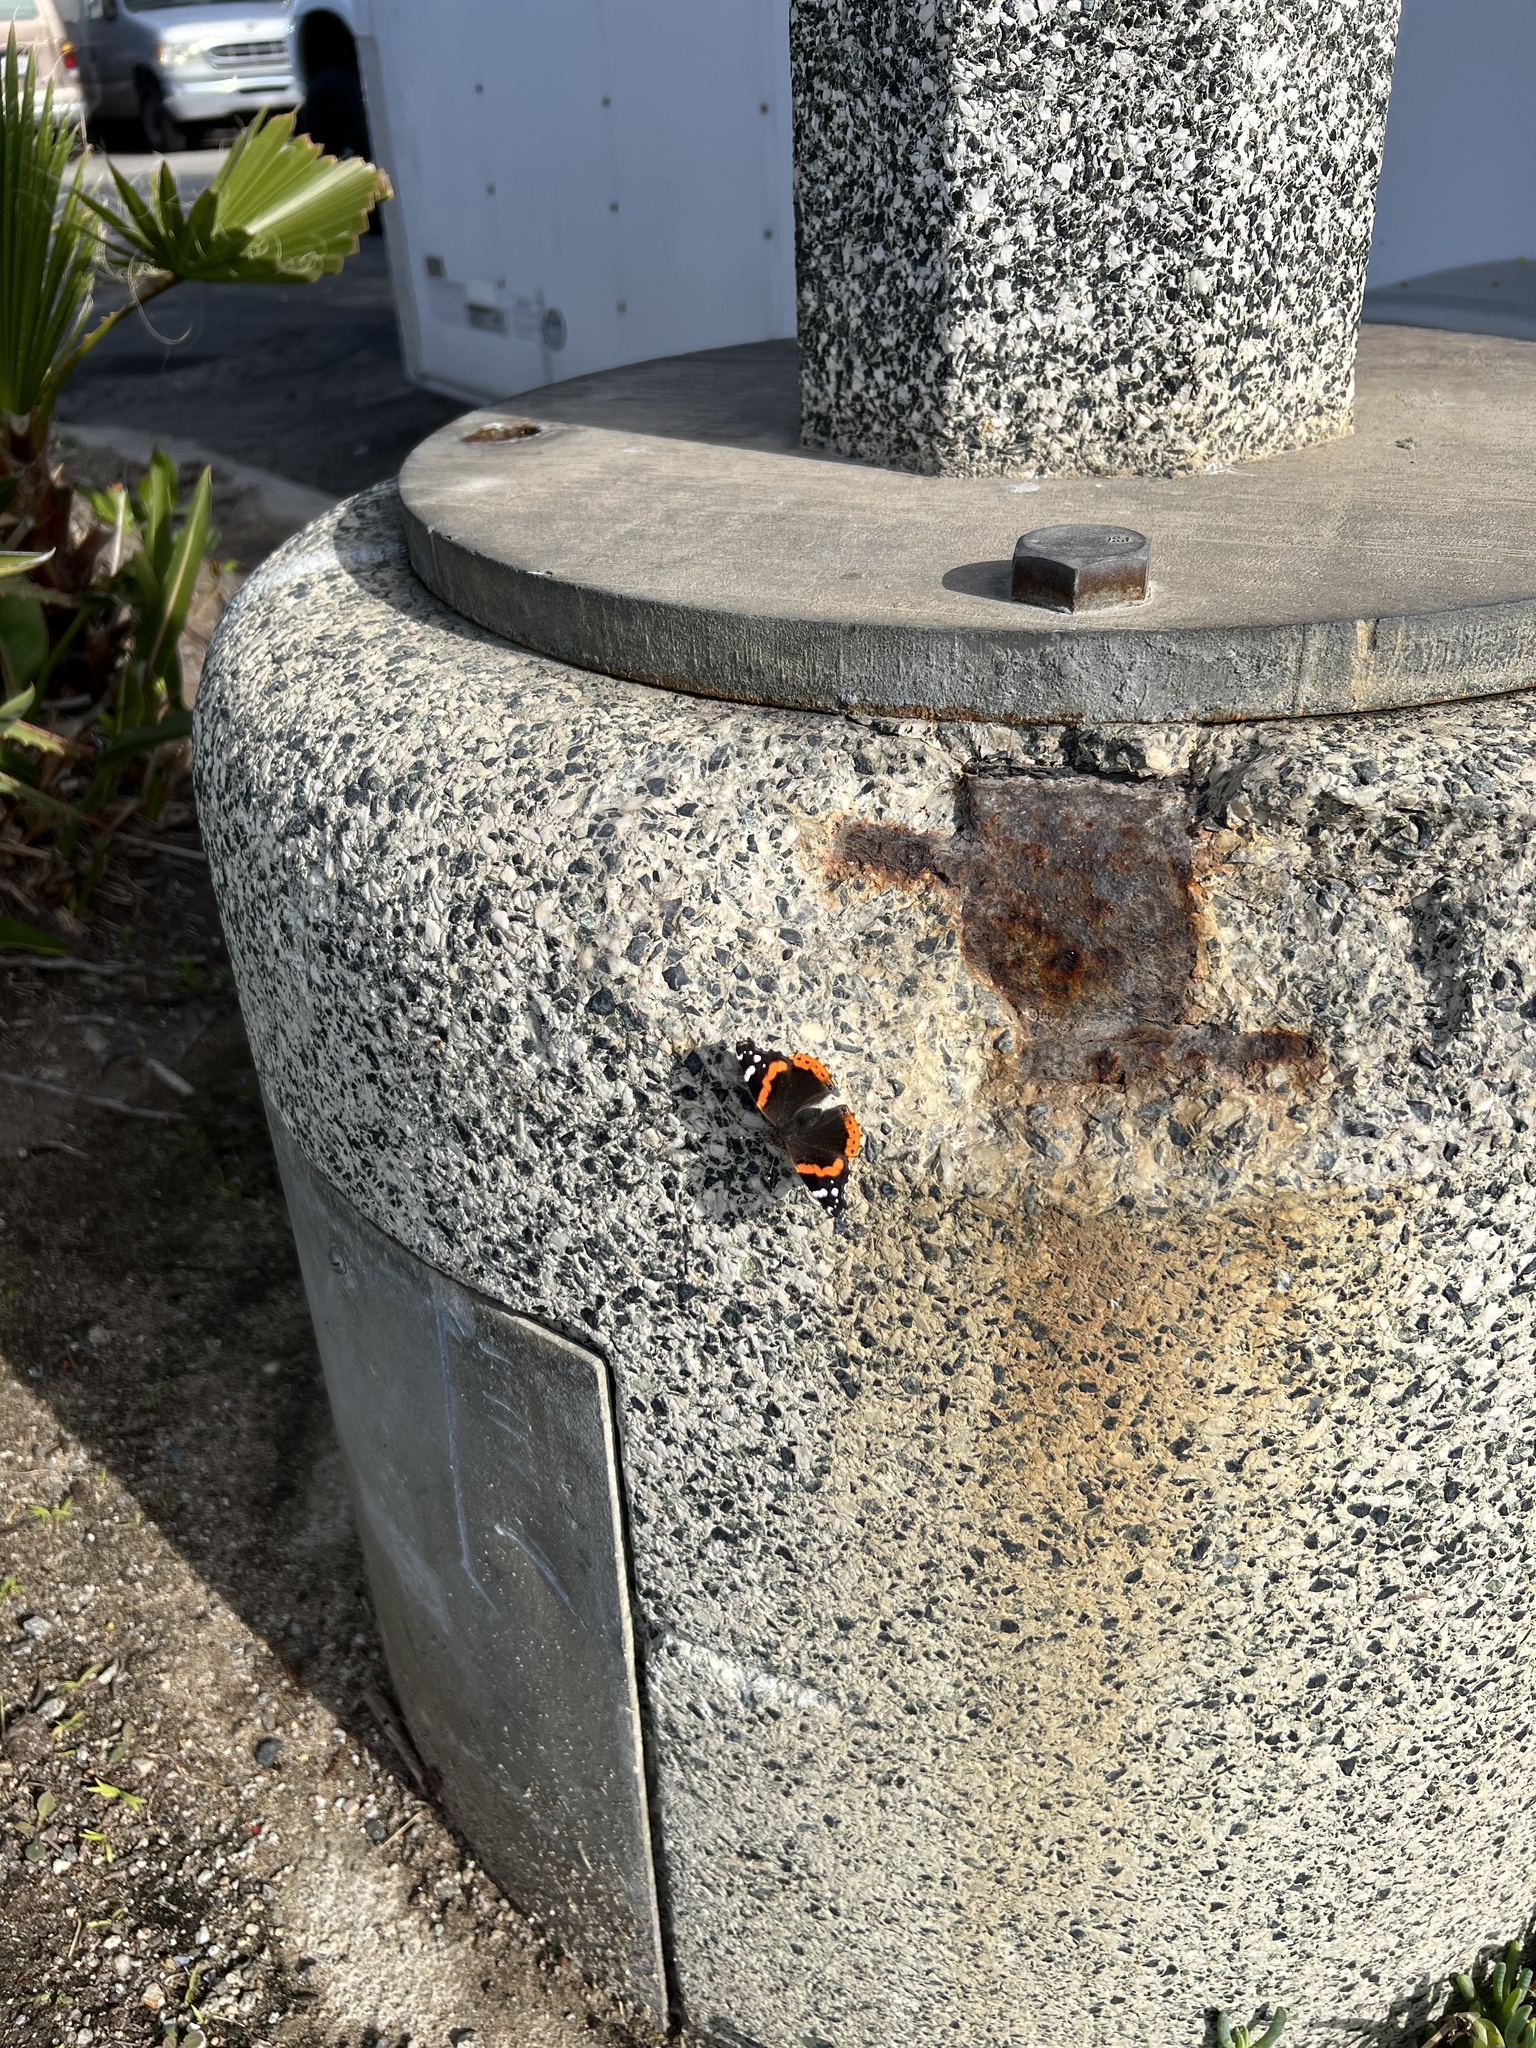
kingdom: Animalia
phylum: Arthropoda
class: Insecta
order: Lepidoptera
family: Nymphalidae
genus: Vanessa
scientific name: Vanessa atalanta
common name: Red admiral
